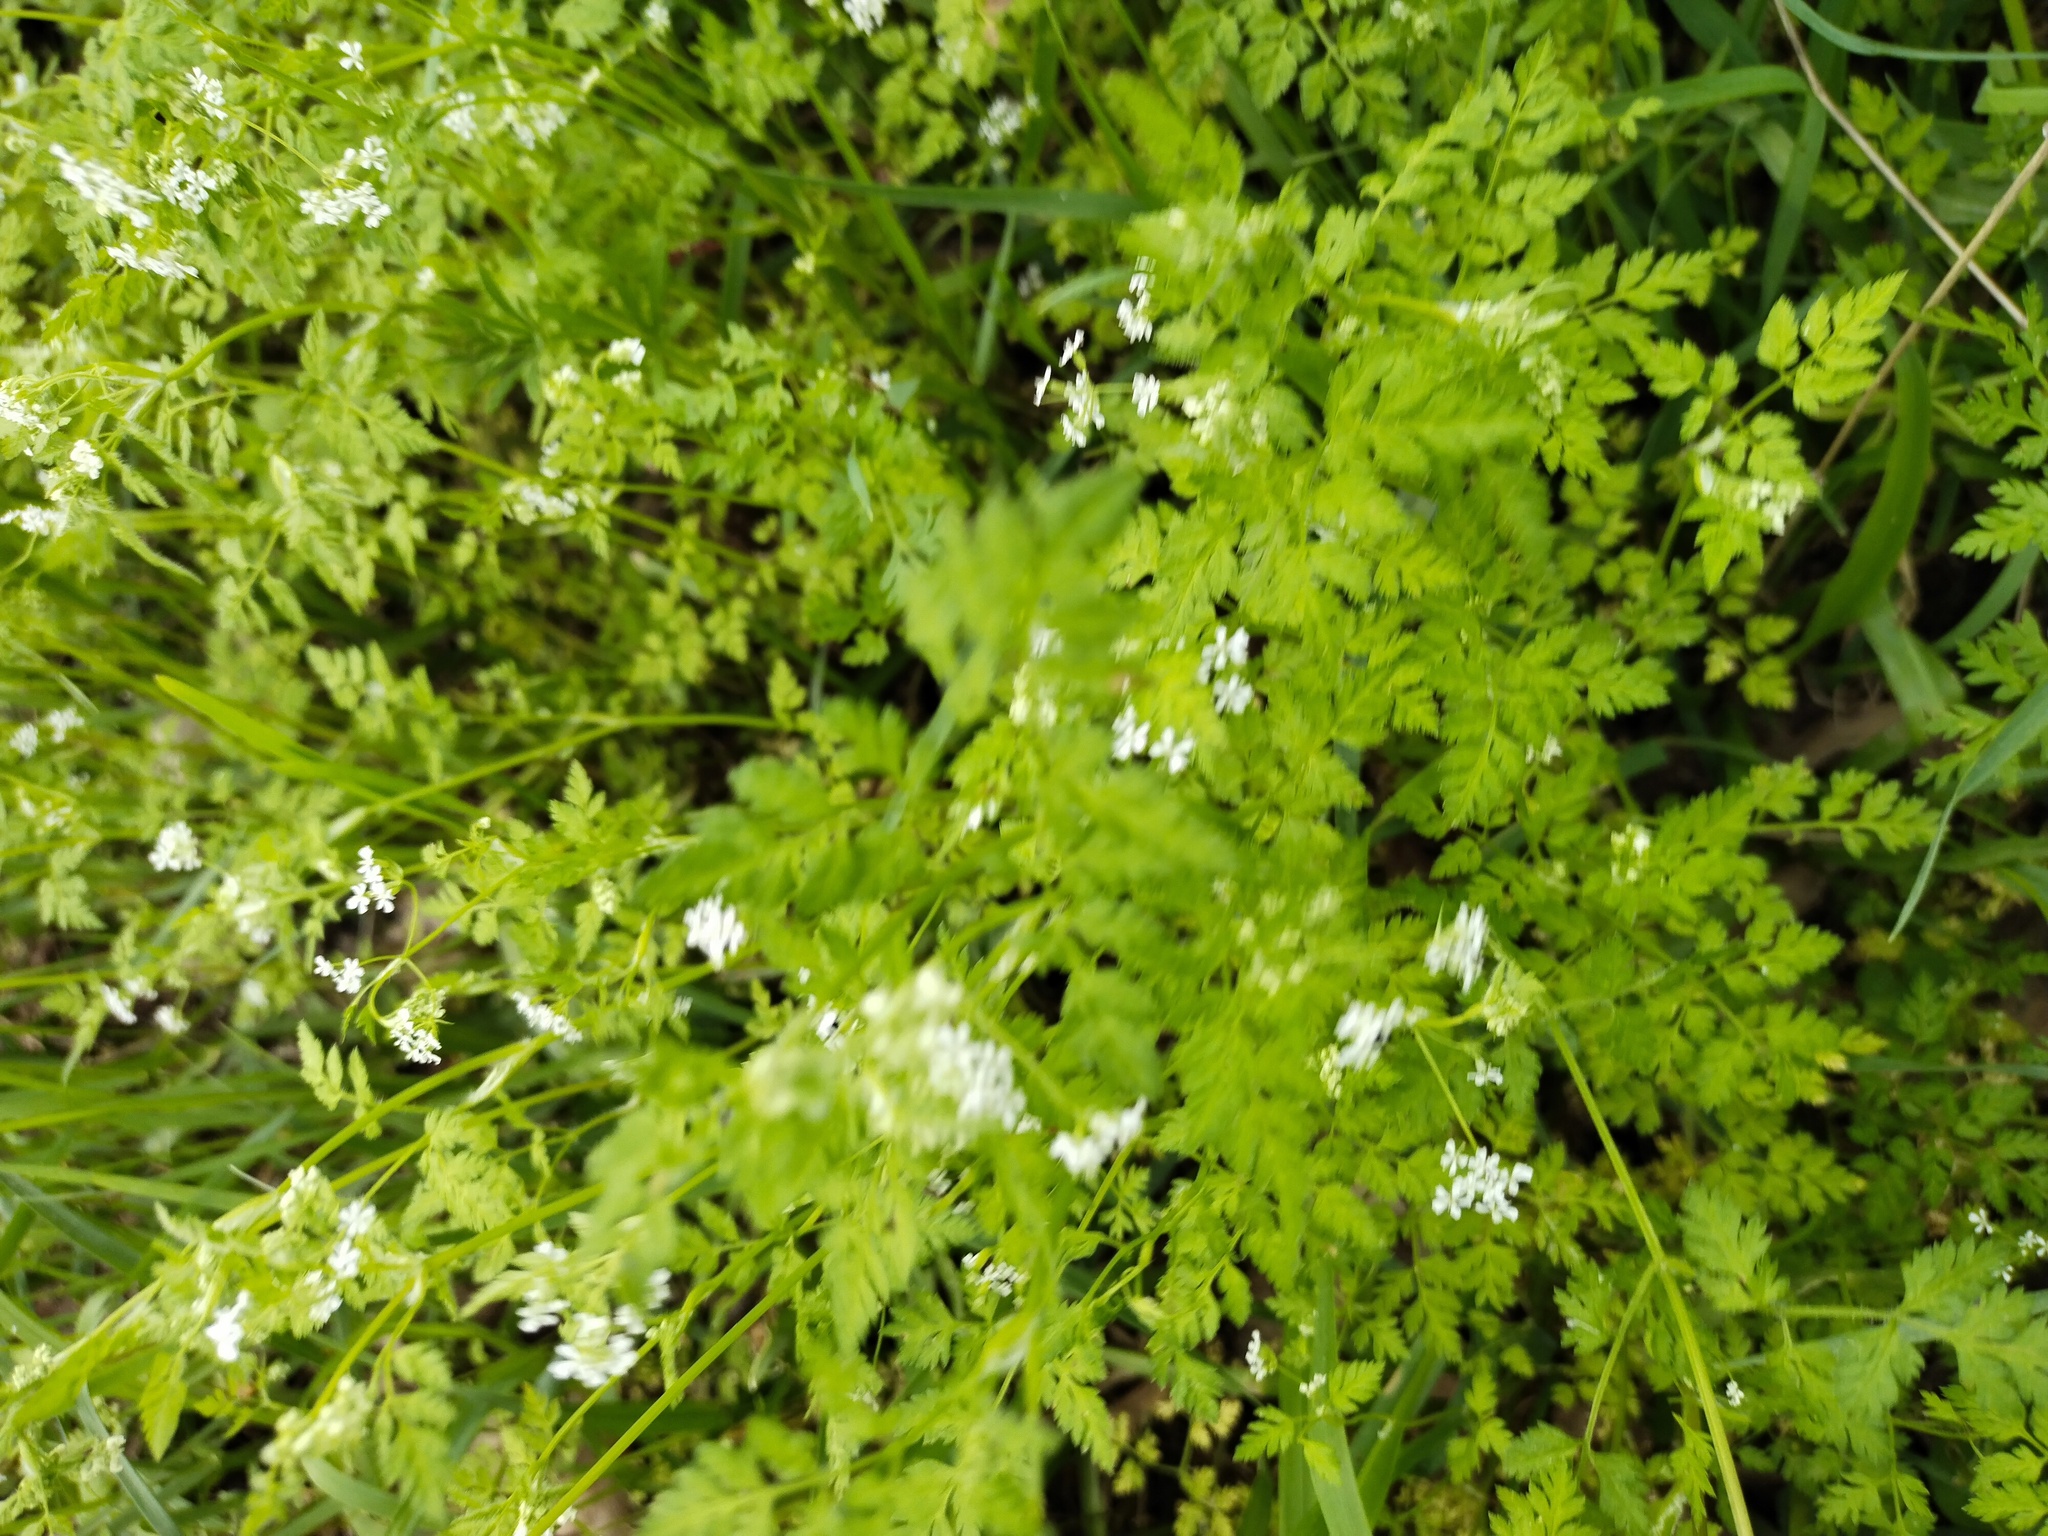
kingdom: Plantae
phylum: Tracheophyta
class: Magnoliopsida
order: Apiales
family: Apiaceae
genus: Anthriscus
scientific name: Anthriscus cerefolium
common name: Garden chervil
